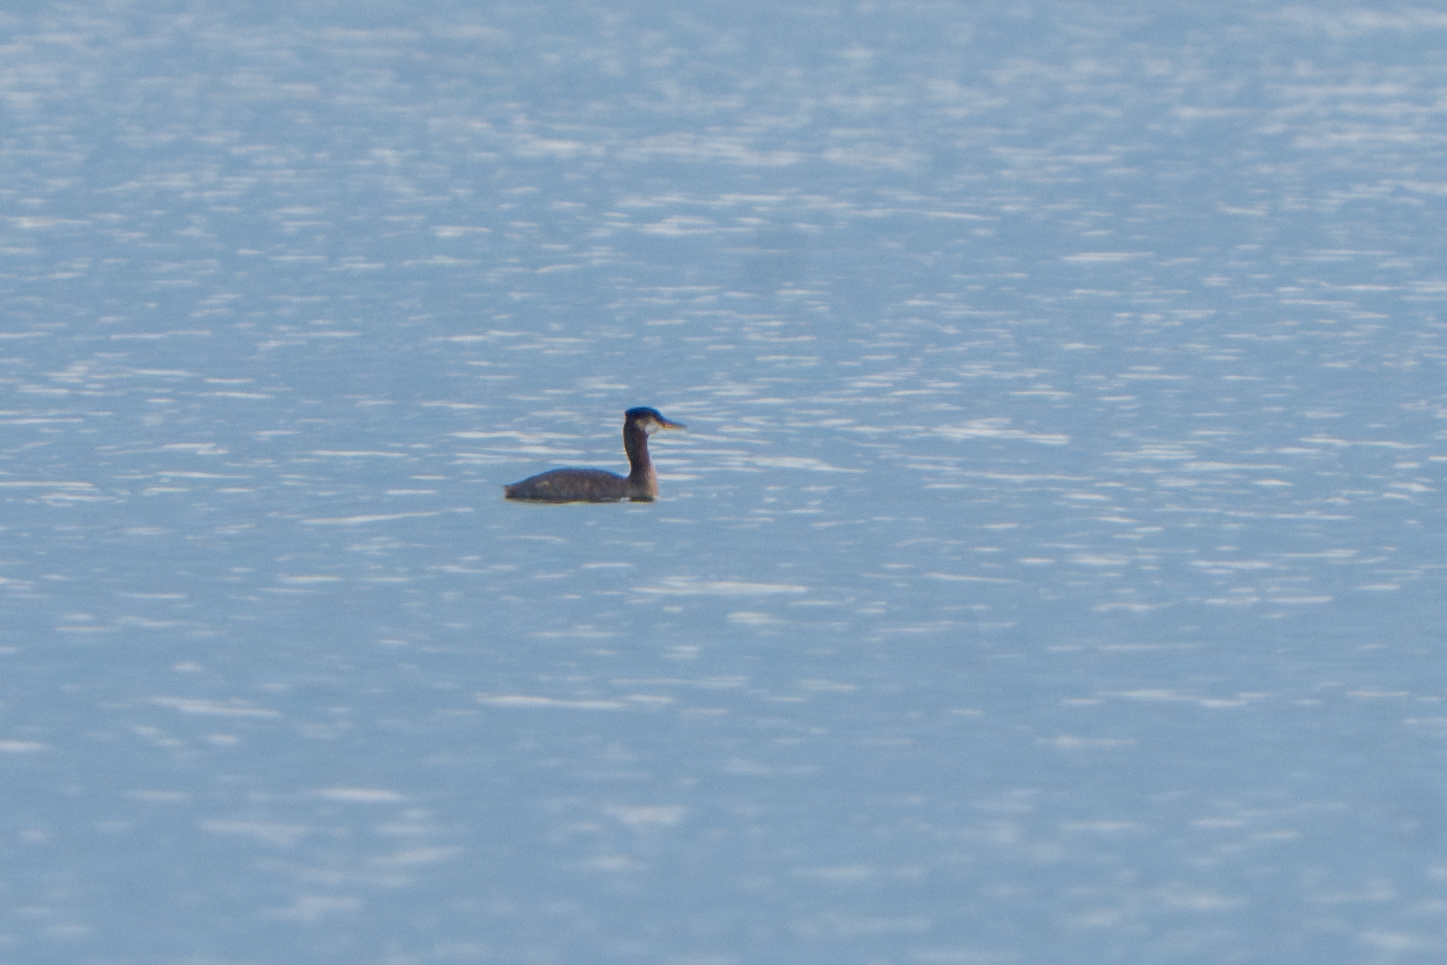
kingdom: Animalia
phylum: Chordata
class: Aves
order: Podicipediformes
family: Podicipedidae
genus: Podiceps
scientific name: Podiceps grisegena
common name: Red-necked grebe
